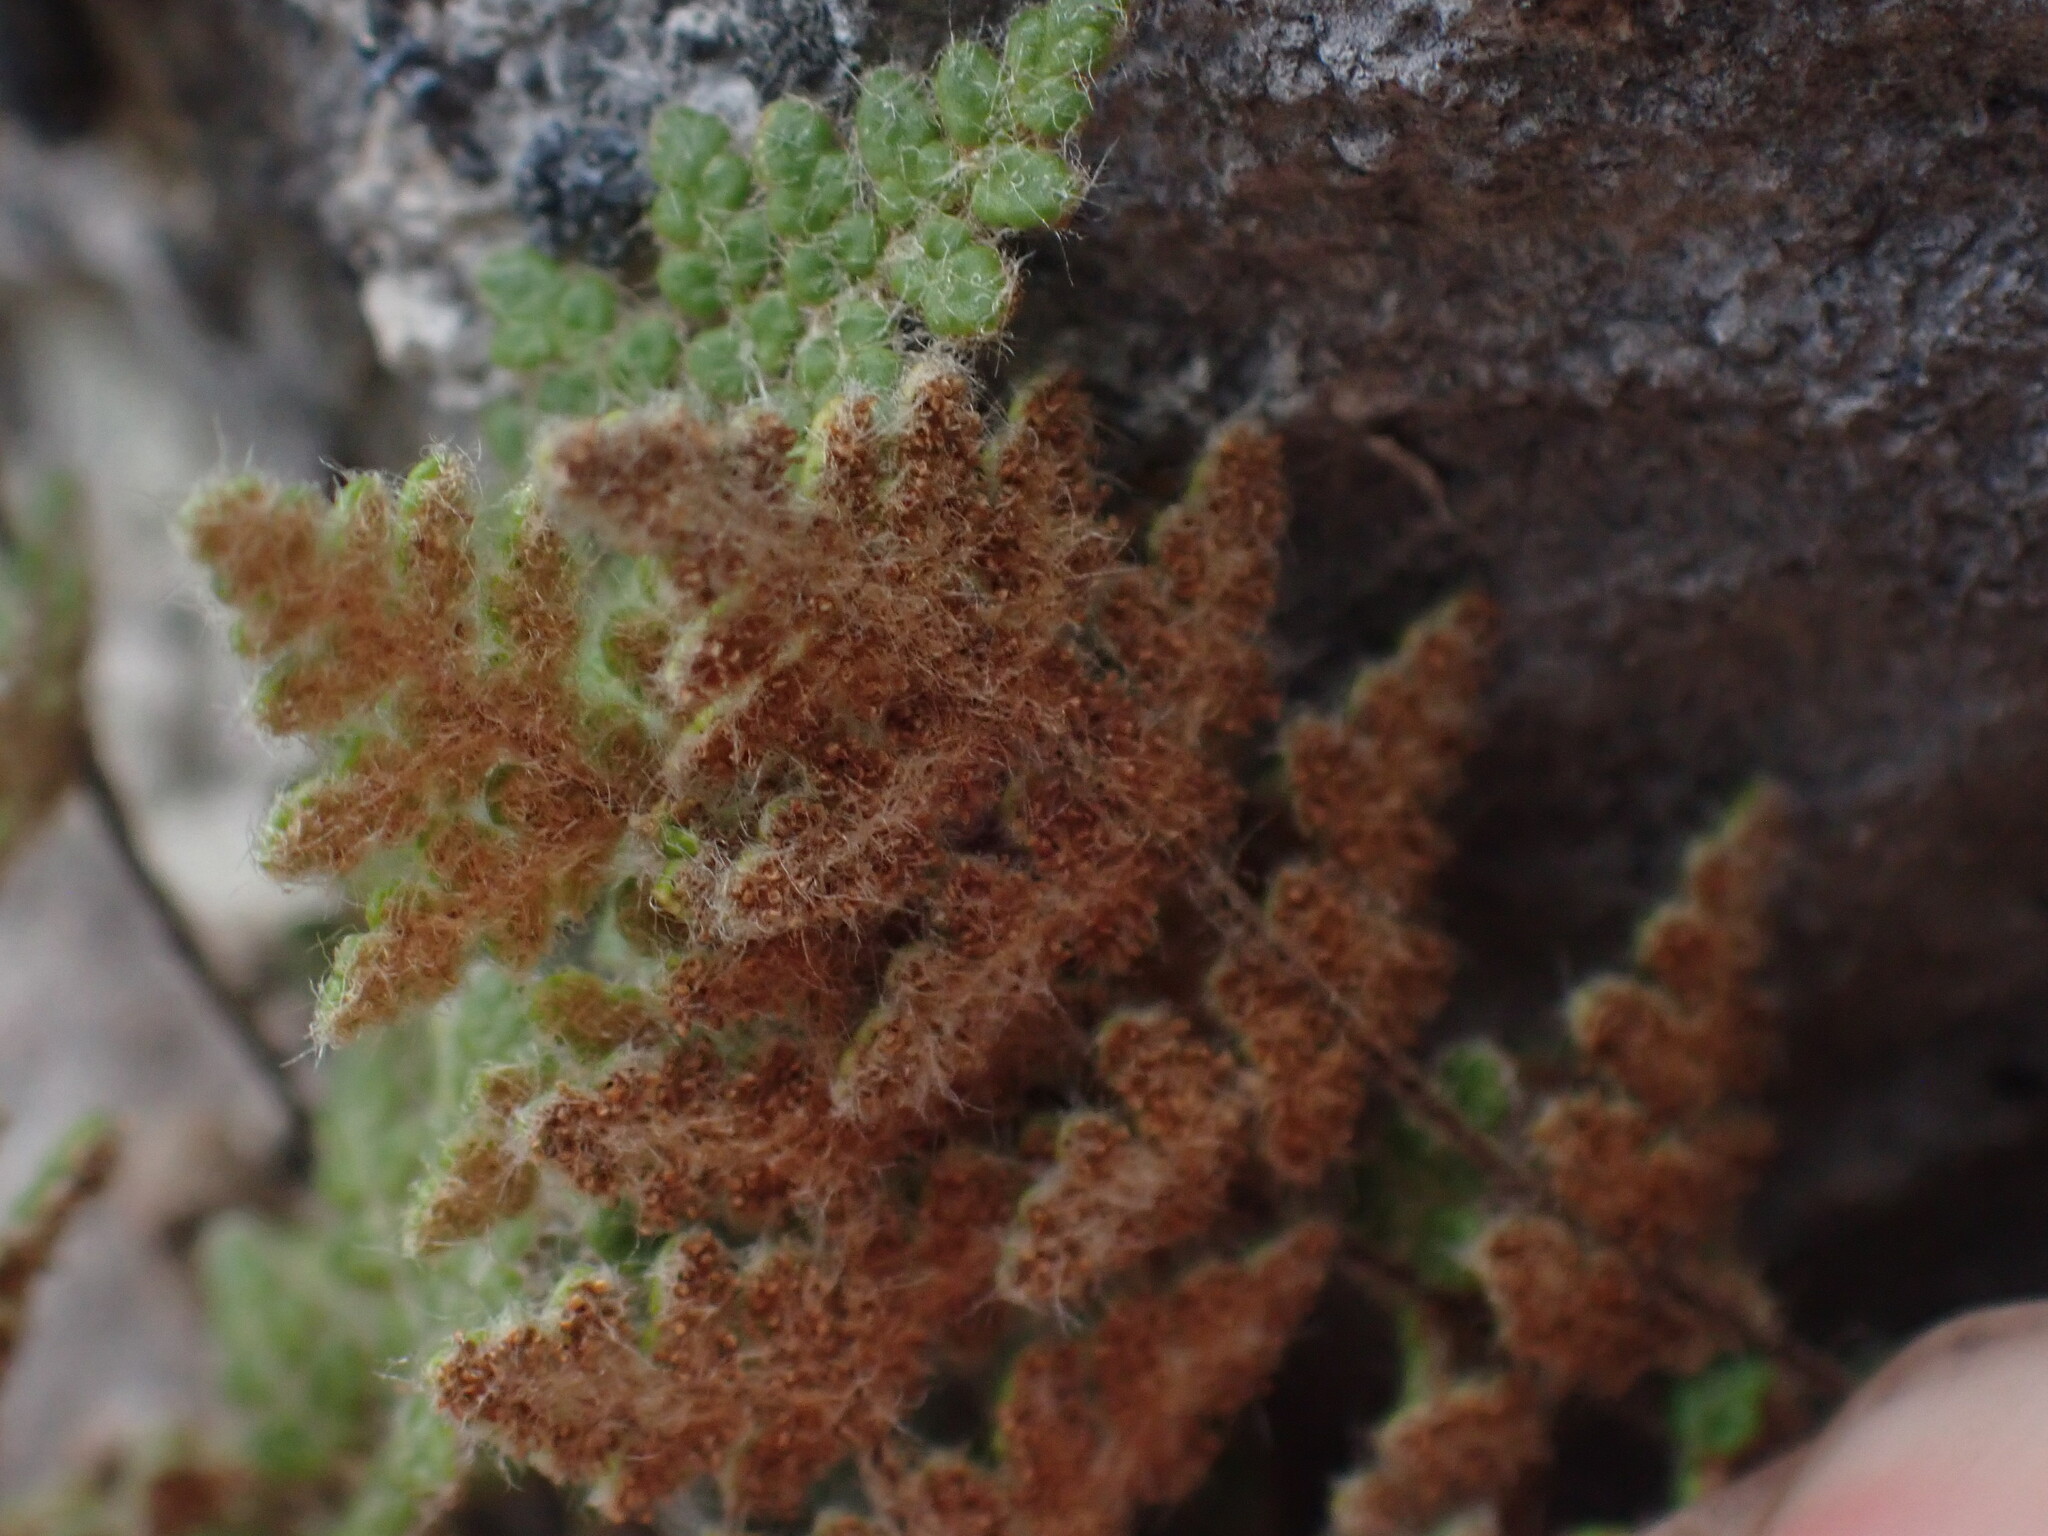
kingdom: Plantae
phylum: Tracheophyta
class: Polypodiopsida
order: Polypodiales
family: Pteridaceae
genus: Myriopteris
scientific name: Myriopteris gracilis
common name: Fee's lip fern
